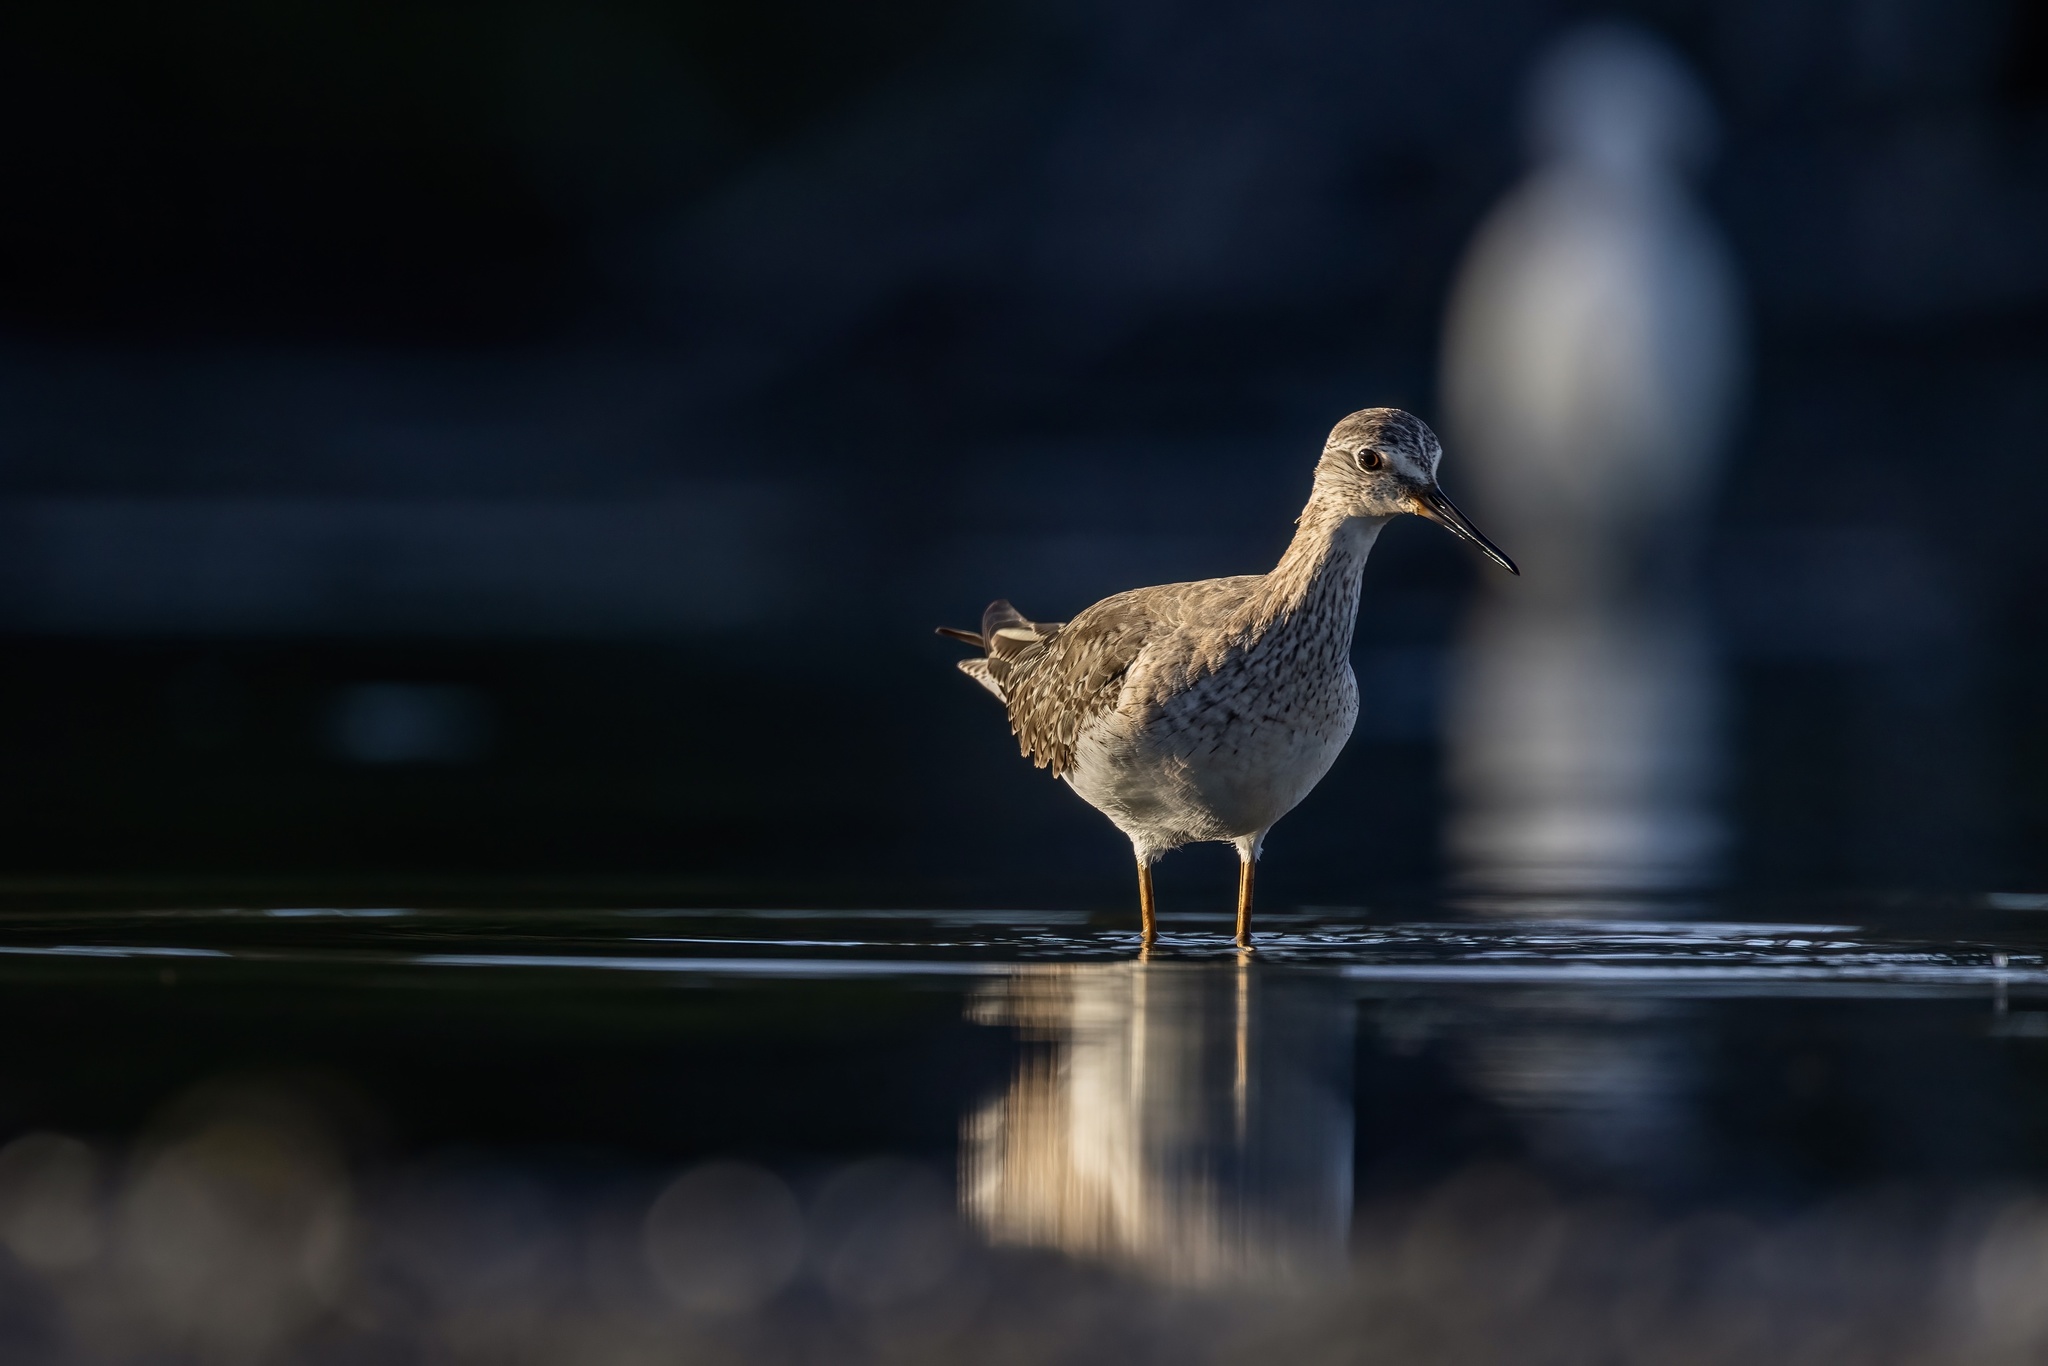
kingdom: Animalia
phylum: Chordata
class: Aves
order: Charadriiformes
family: Scolopacidae
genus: Tringa
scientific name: Tringa flavipes
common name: Lesser yellowlegs
